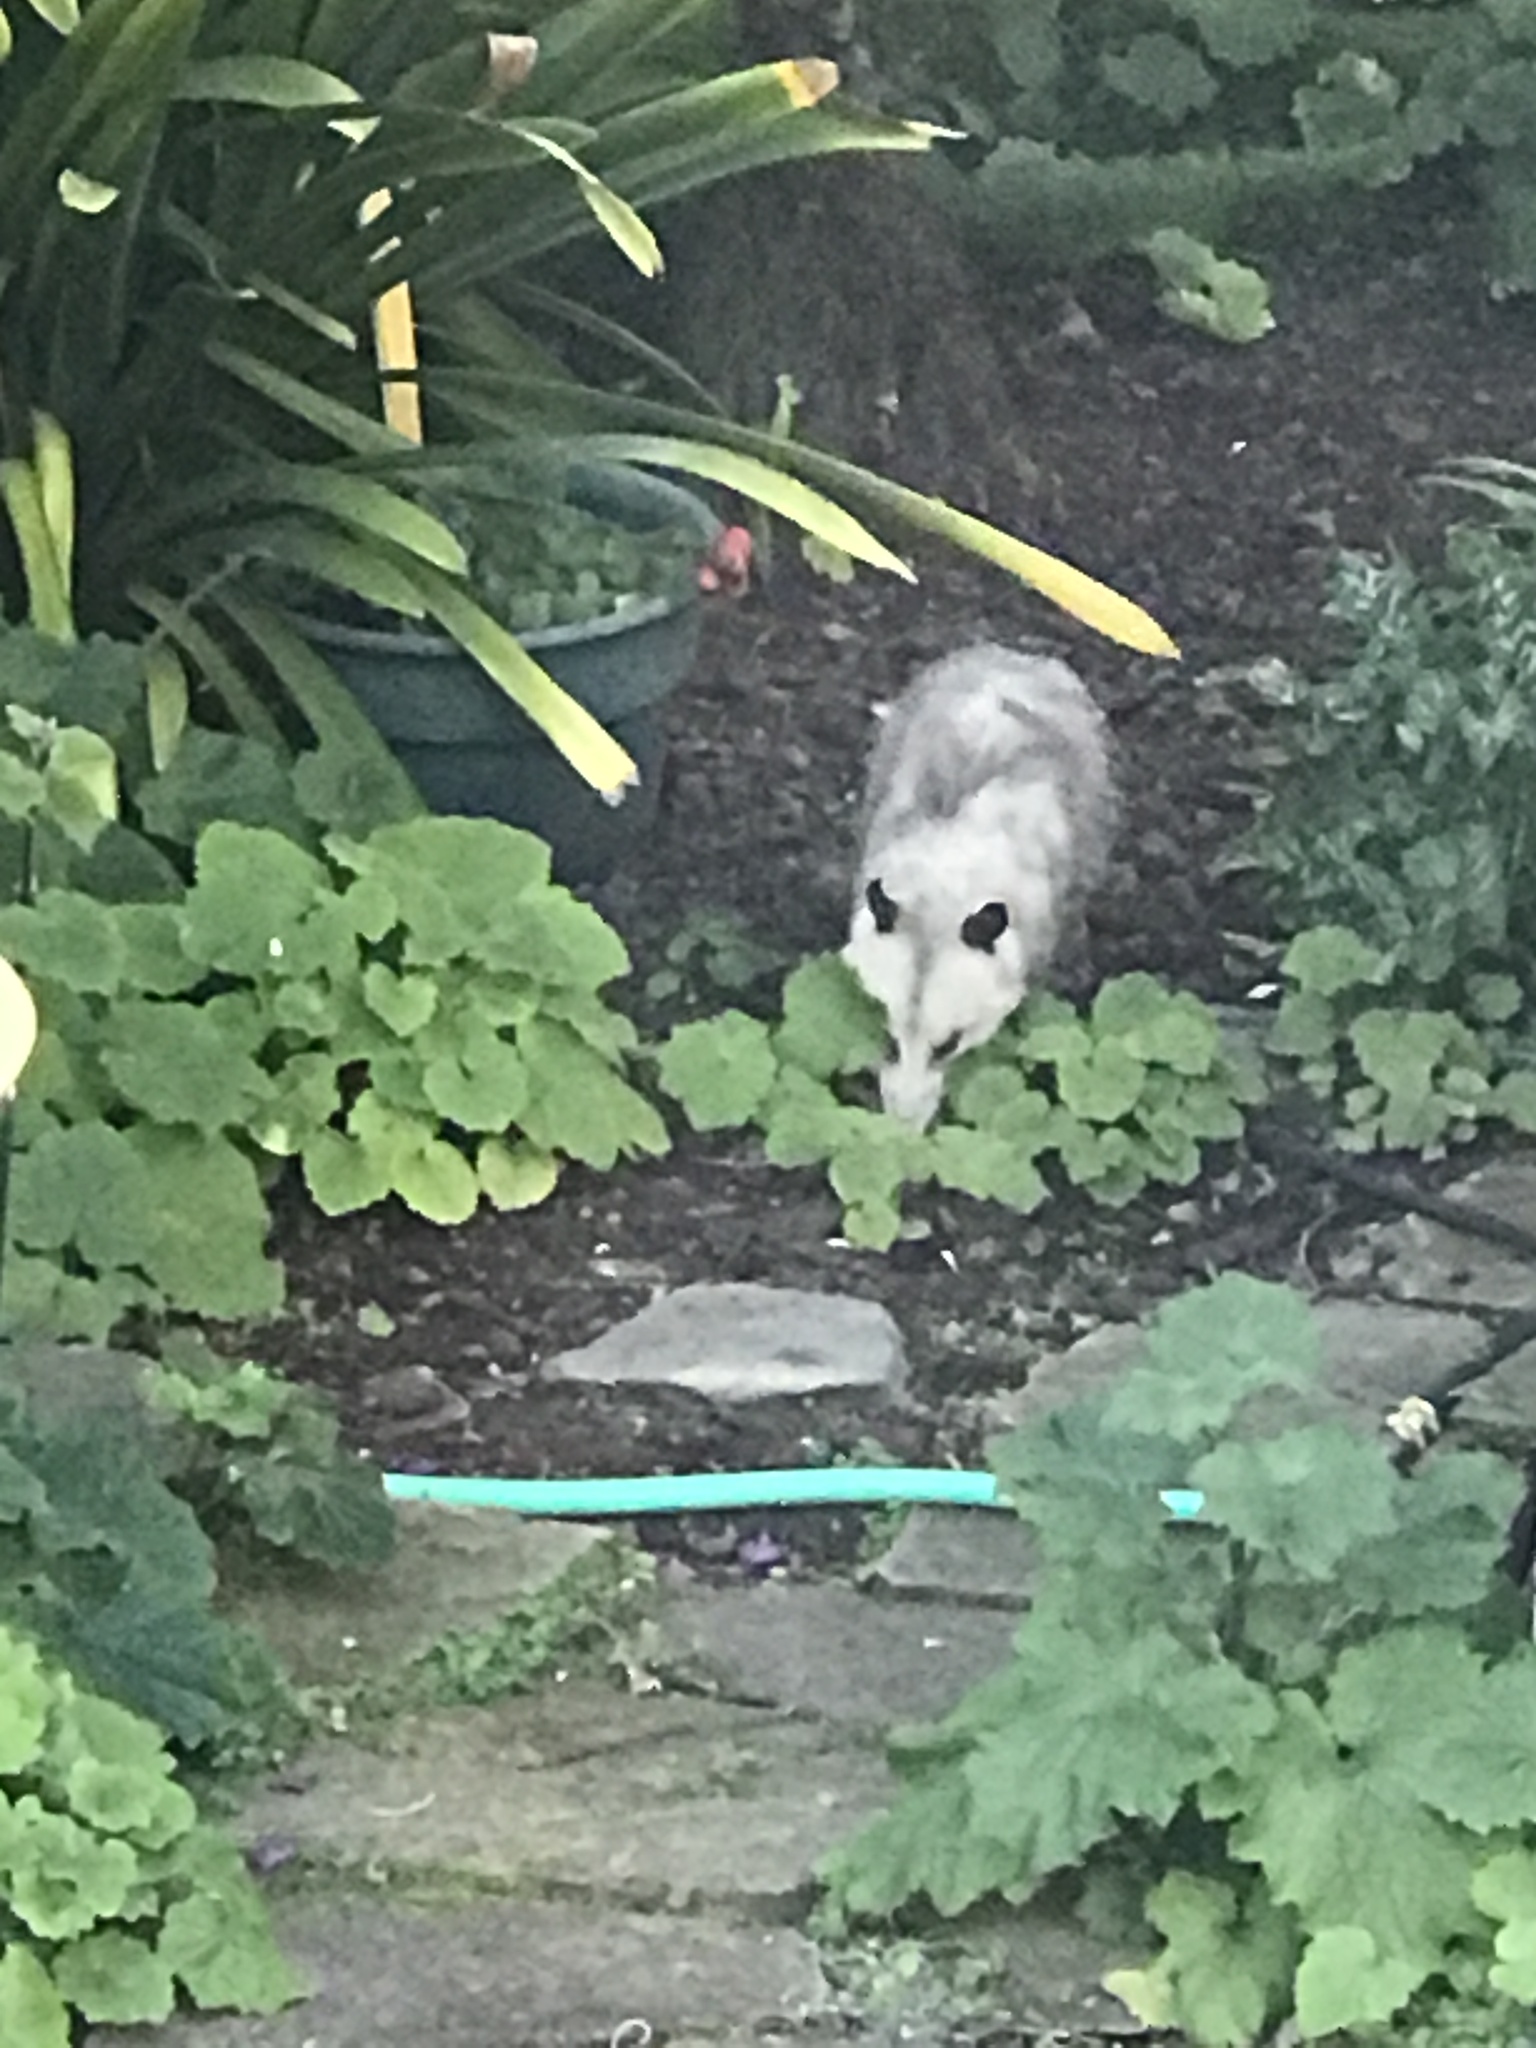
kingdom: Animalia
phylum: Chordata
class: Mammalia
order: Didelphimorphia
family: Didelphidae
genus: Didelphis
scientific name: Didelphis virginiana
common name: Virginia opossum
